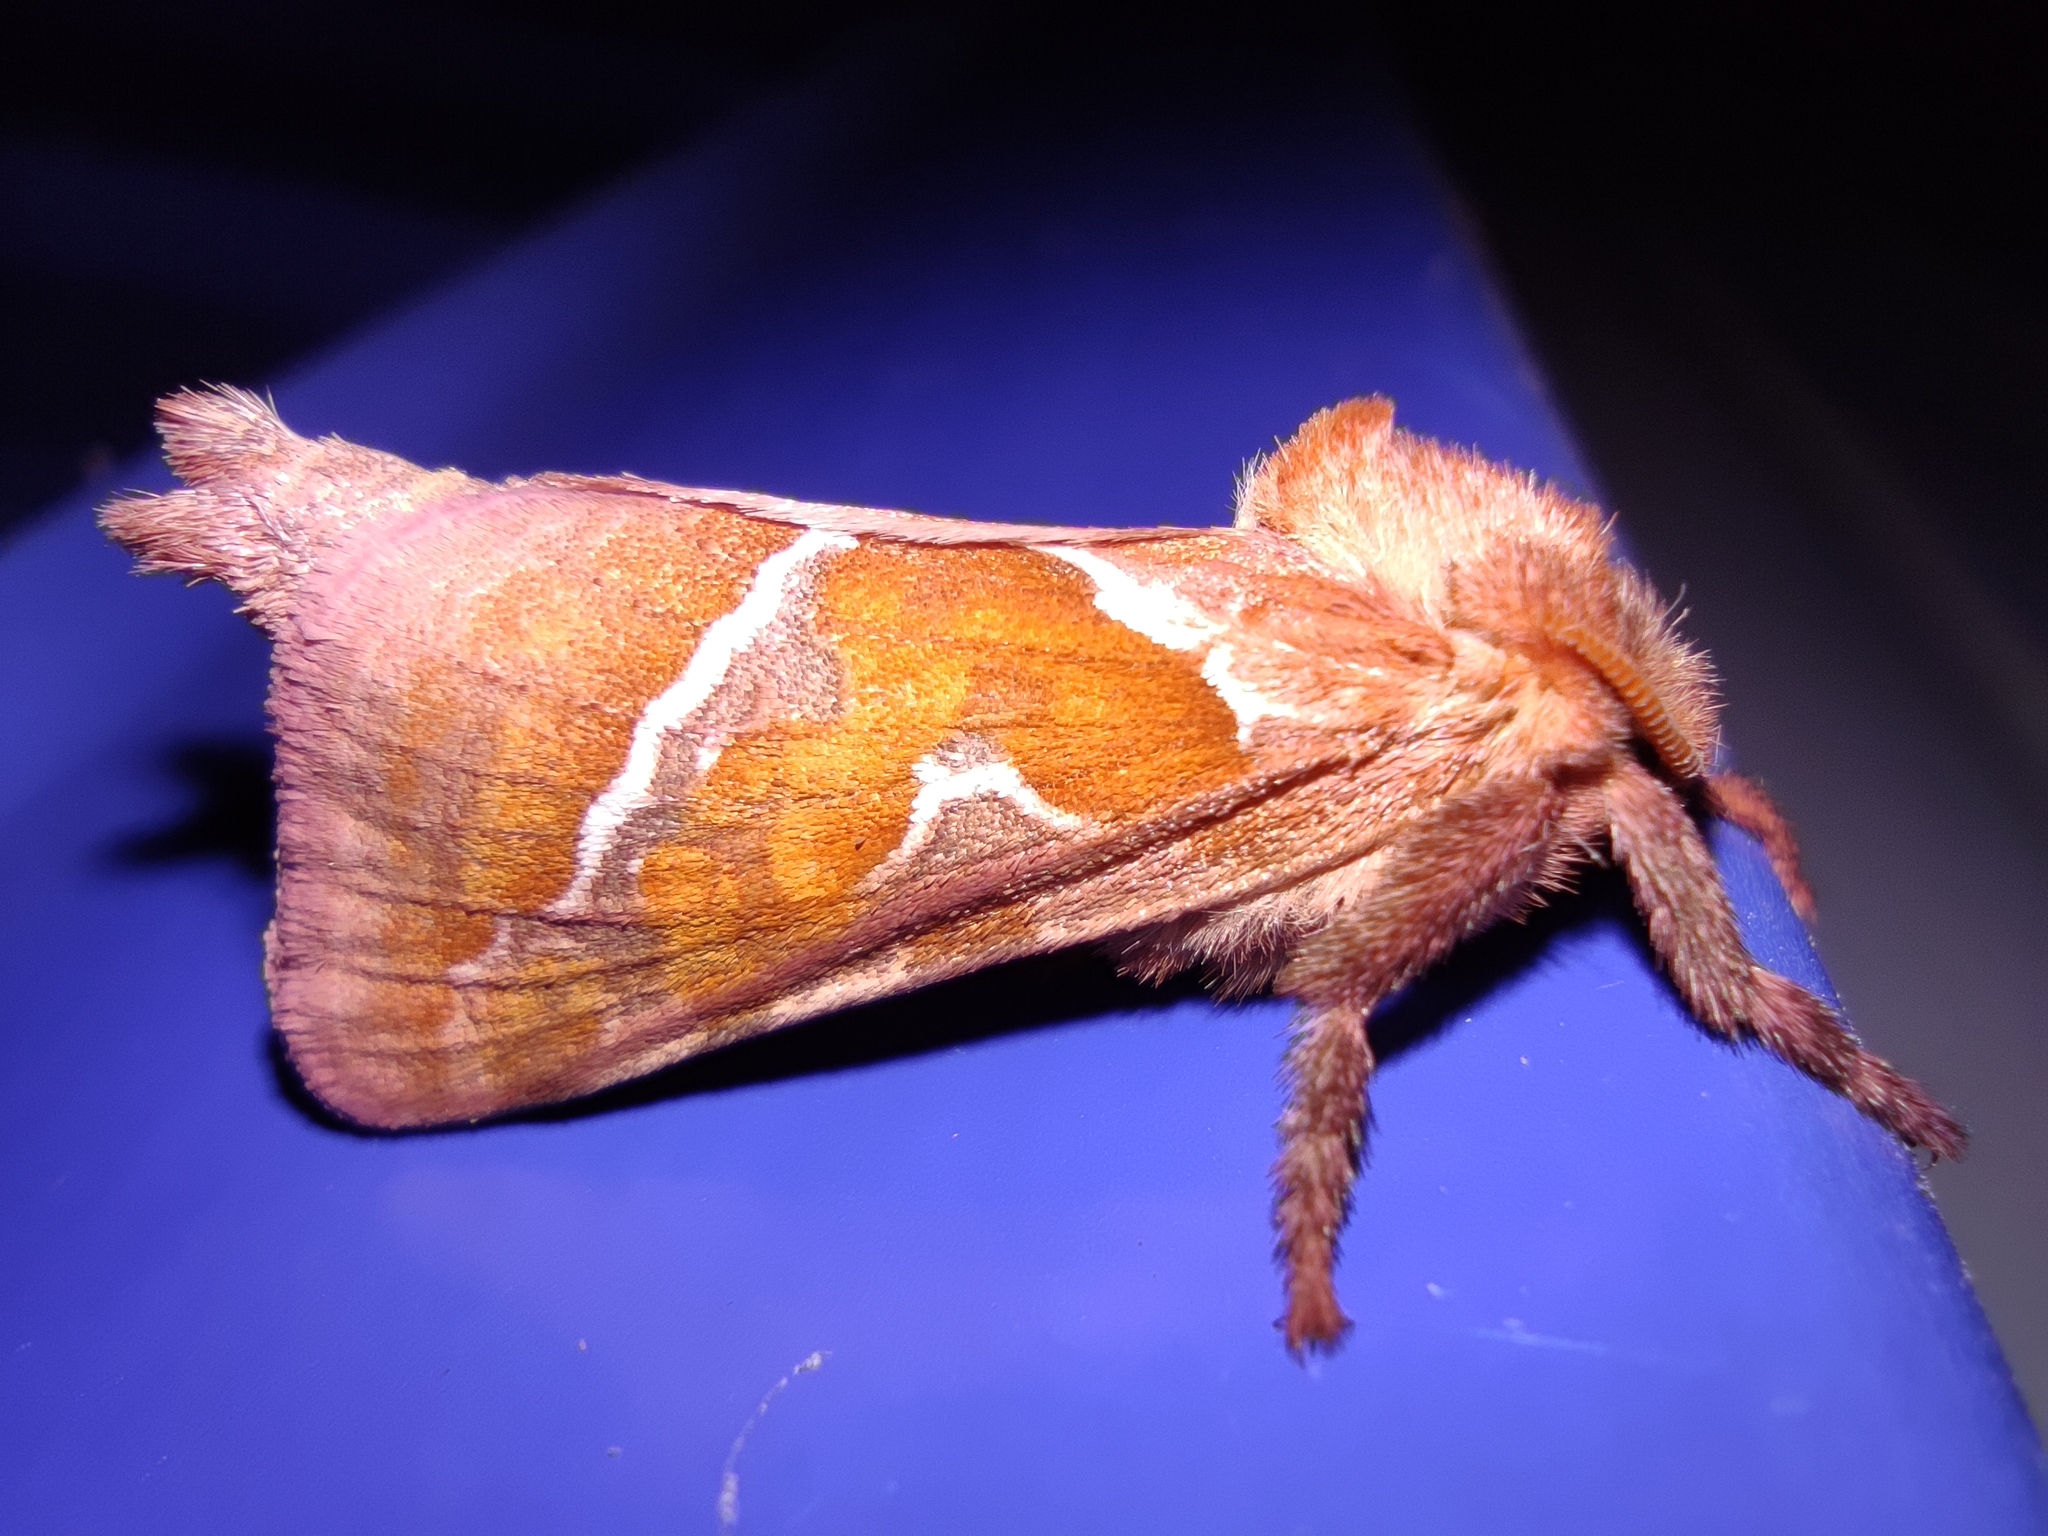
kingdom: Animalia
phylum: Arthropoda
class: Insecta
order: Lepidoptera
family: Hepialidae
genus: Triodia
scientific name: Triodia sylvina
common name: Orange swift
